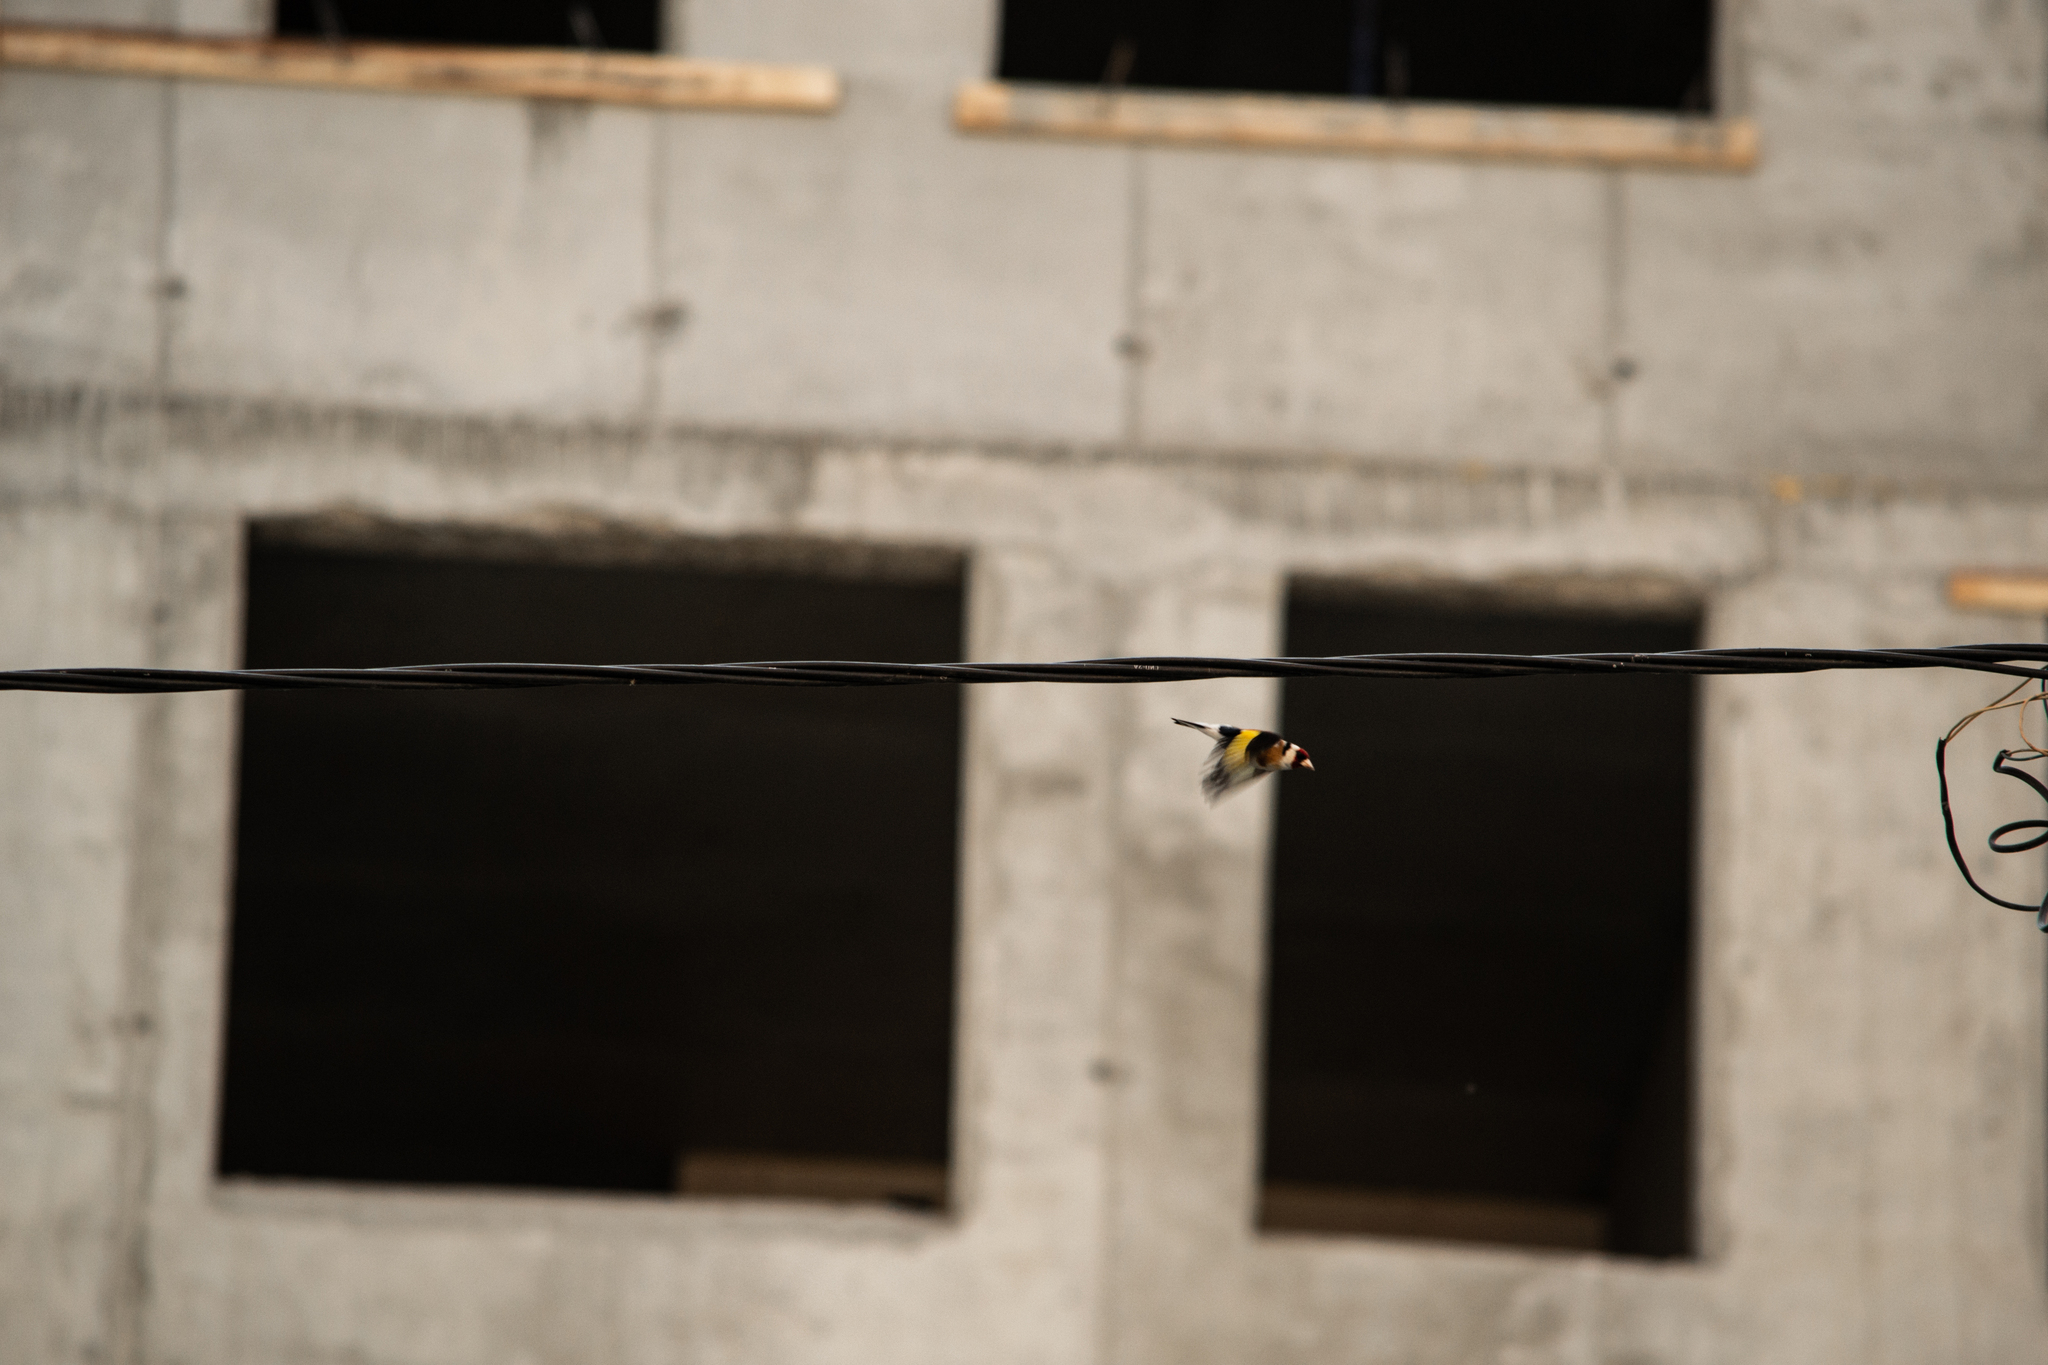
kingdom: Animalia
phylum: Chordata
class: Aves
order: Passeriformes
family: Fringillidae
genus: Carduelis
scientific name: Carduelis carduelis
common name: European goldfinch
